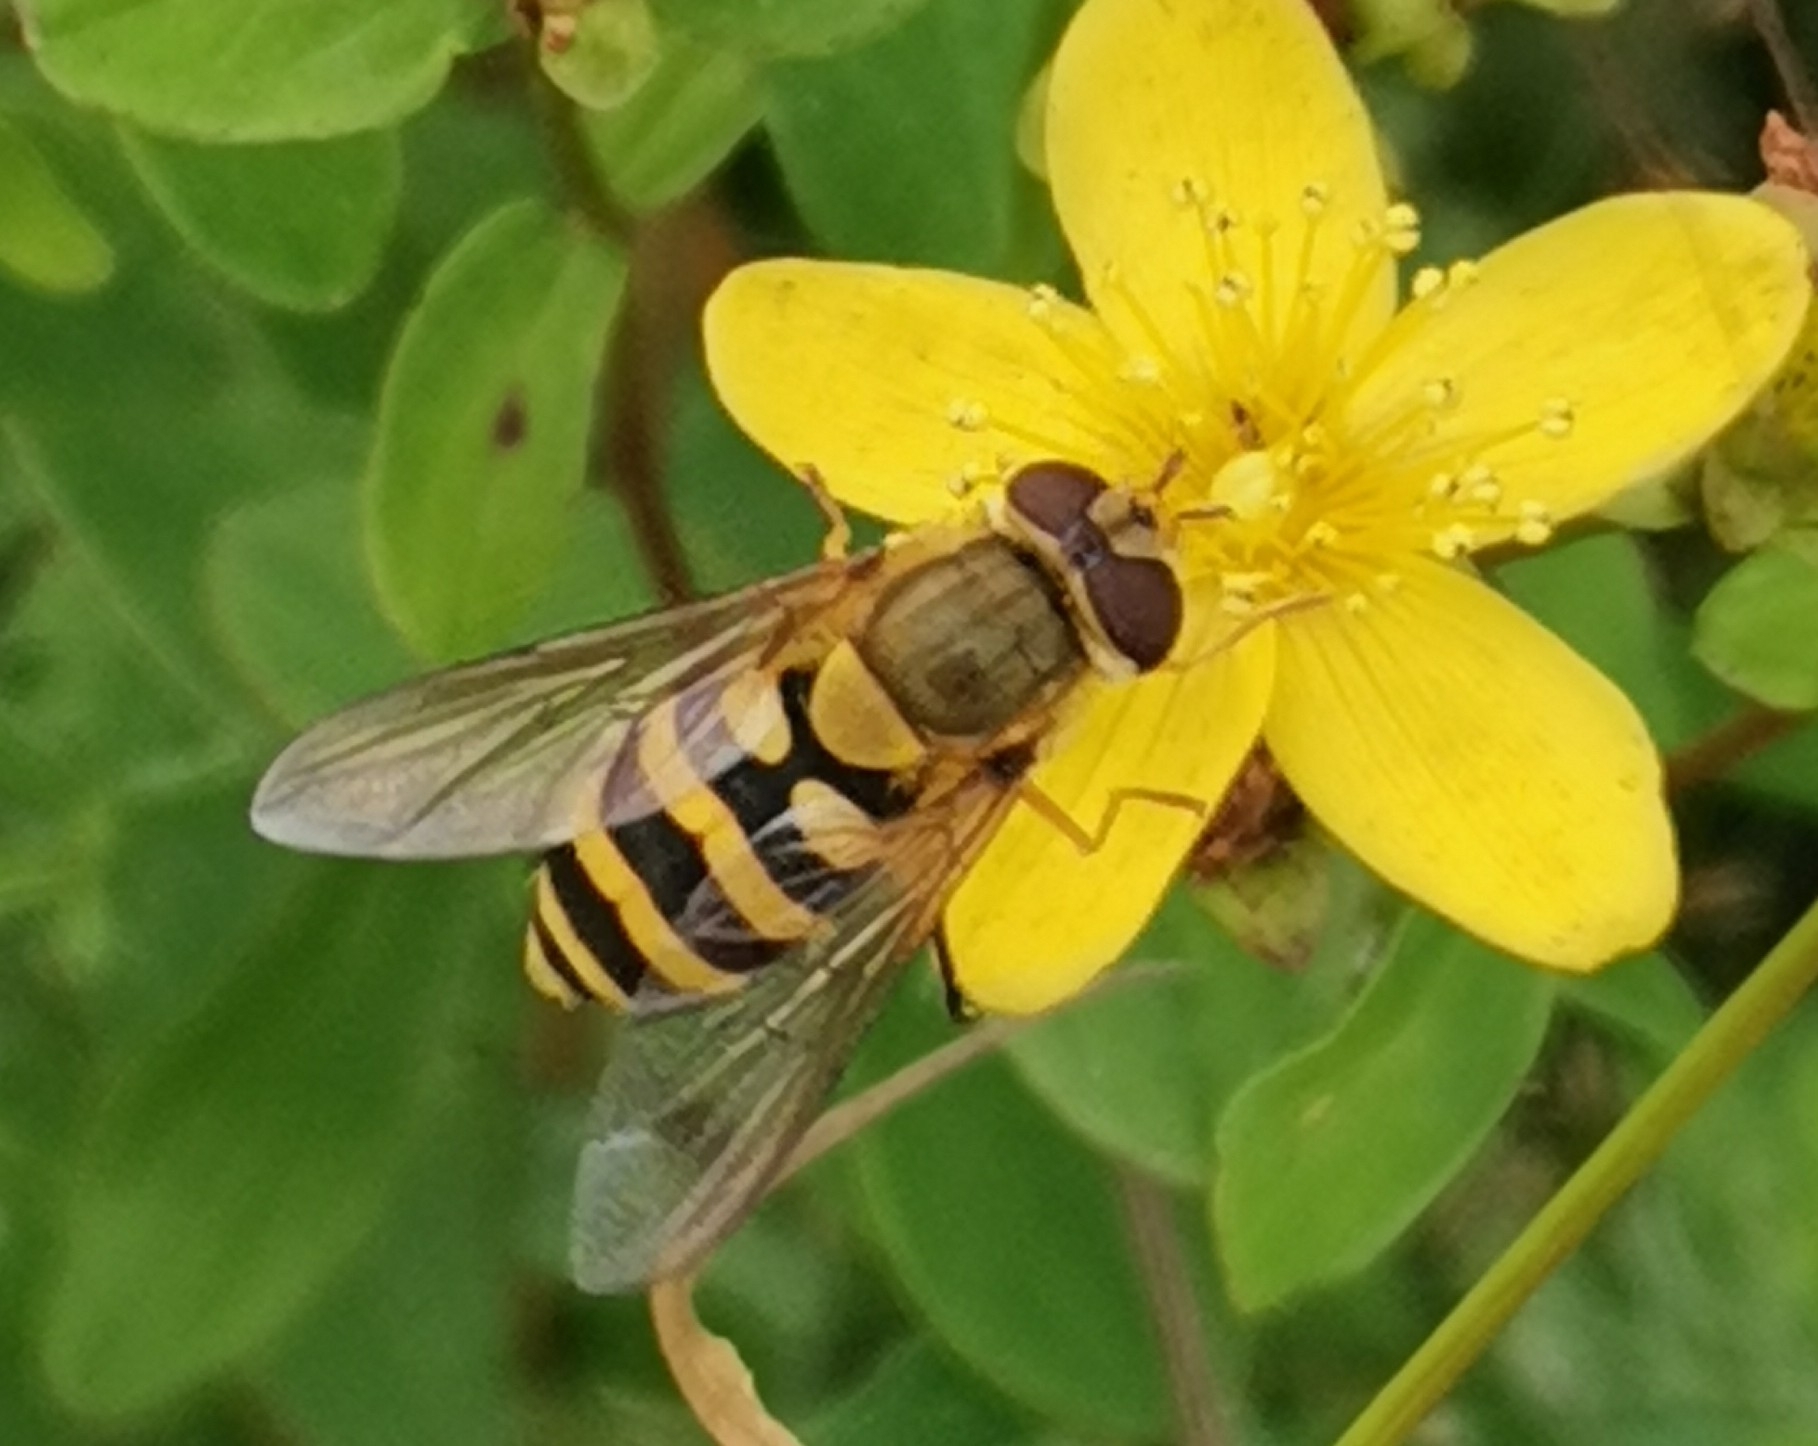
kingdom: Animalia
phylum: Arthropoda
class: Insecta
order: Diptera
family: Syrphidae
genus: Syrphus
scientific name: Syrphus
